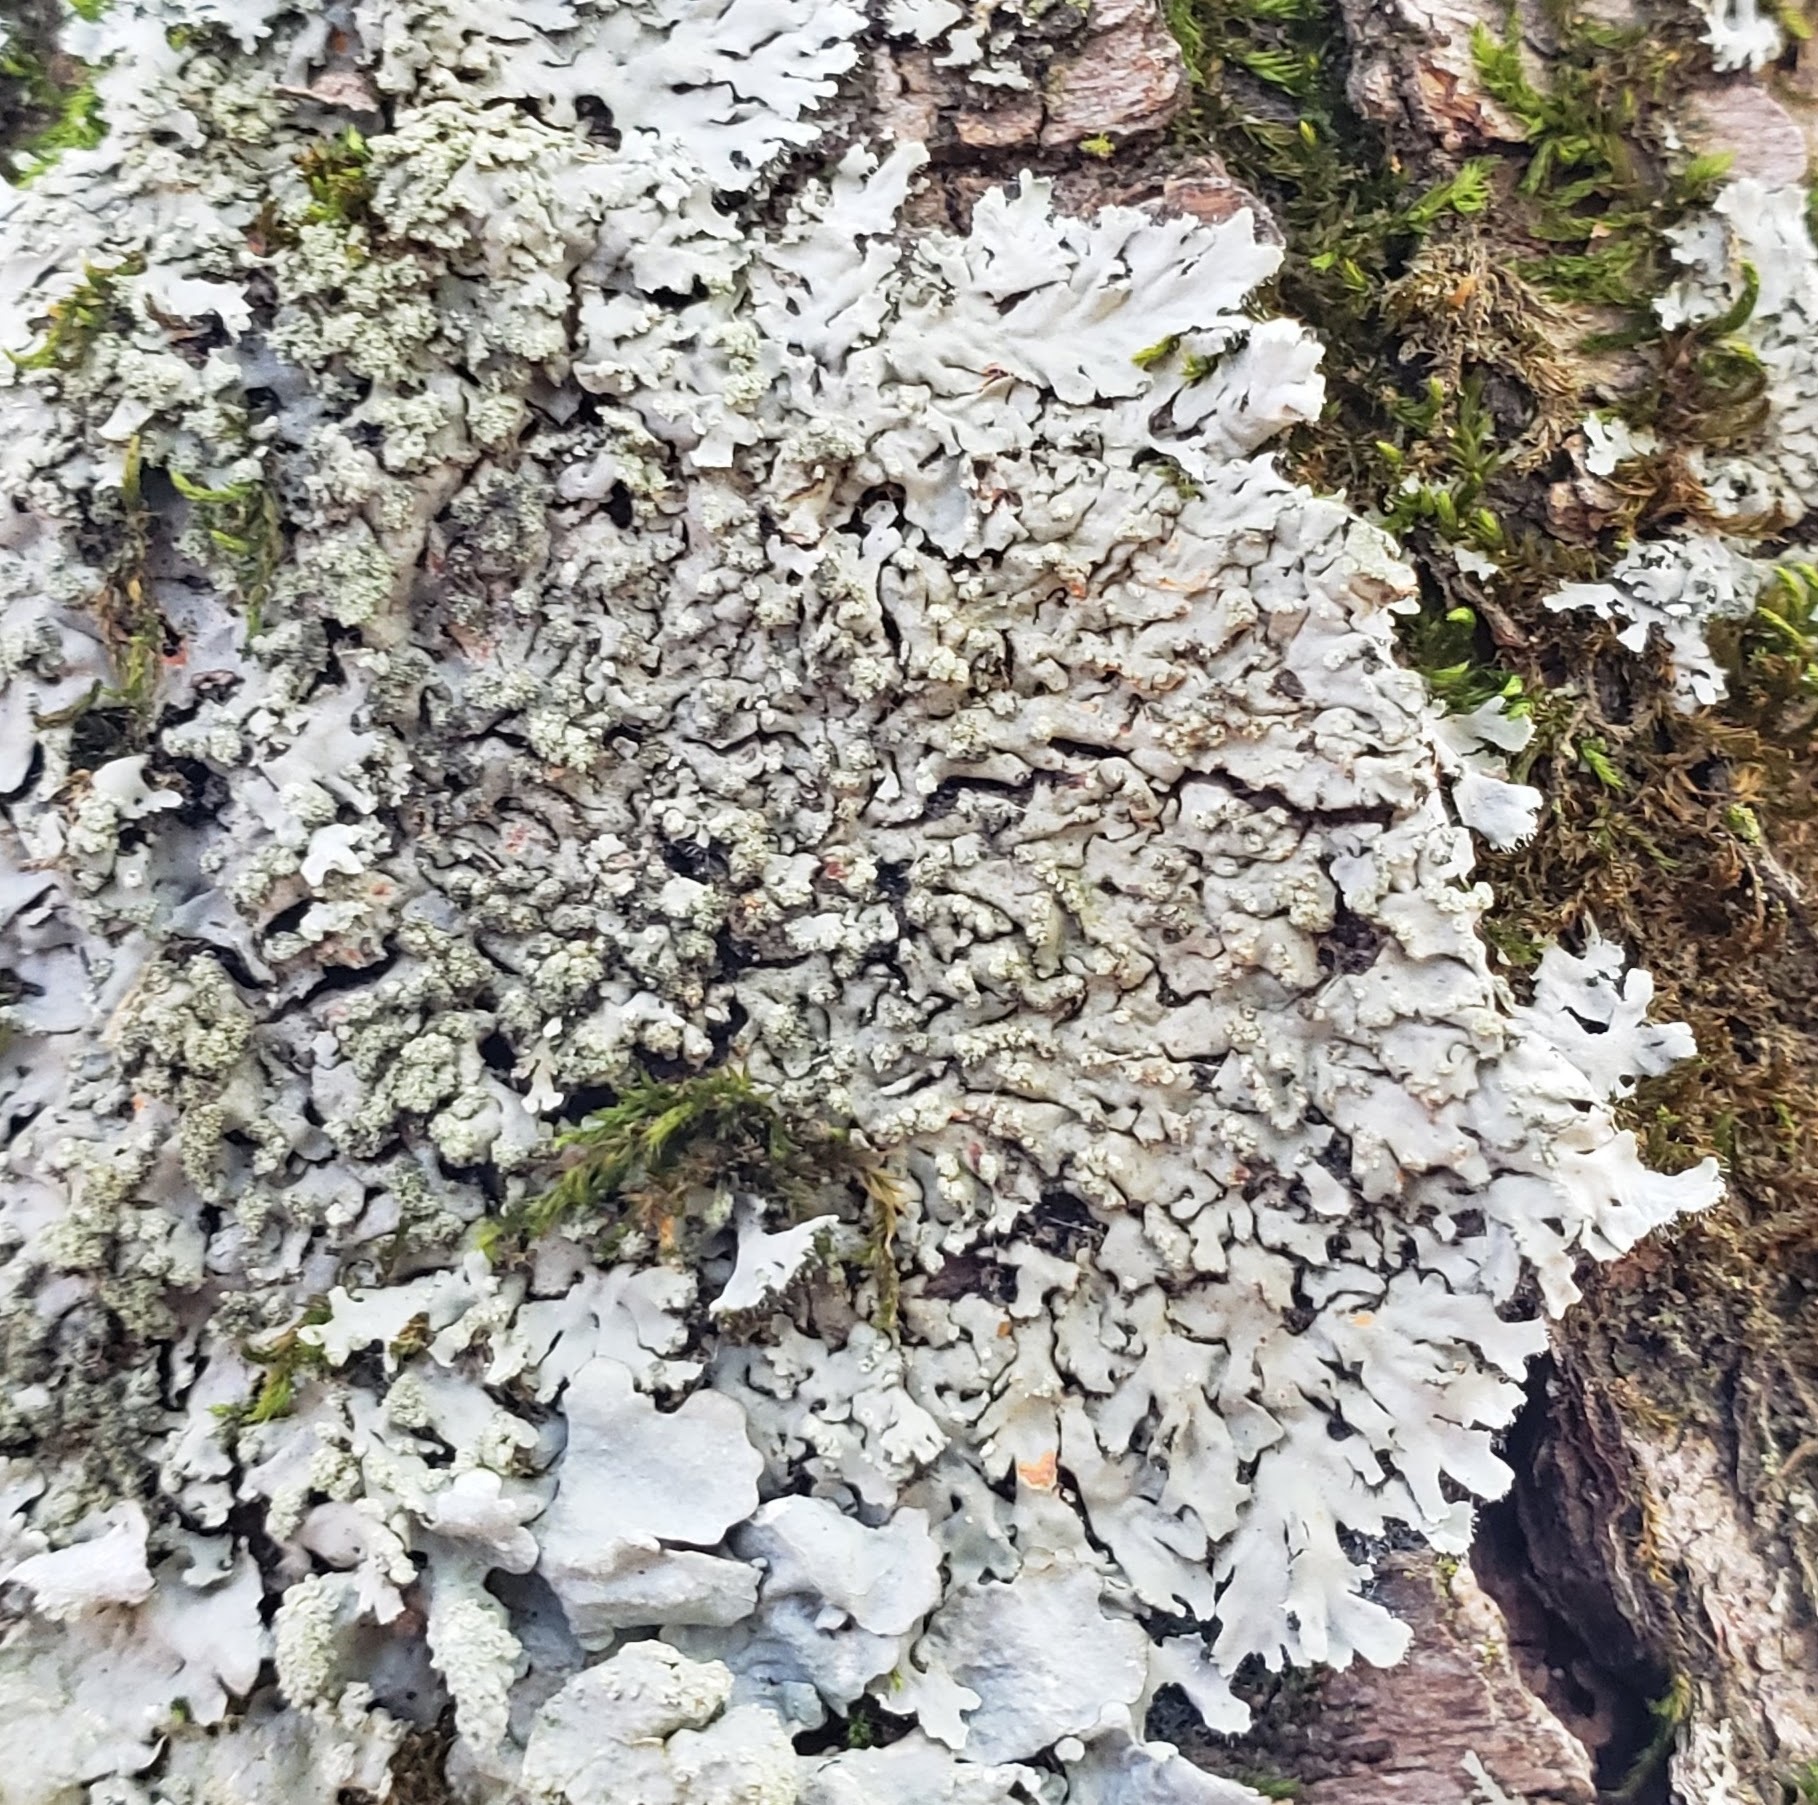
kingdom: Fungi
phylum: Ascomycota
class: Lecanoromycetes
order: Caliciales
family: Physciaceae
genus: Phaeophyscia
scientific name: Phaeophyscia rubropulchra
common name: Orange-cored shadow lichen
